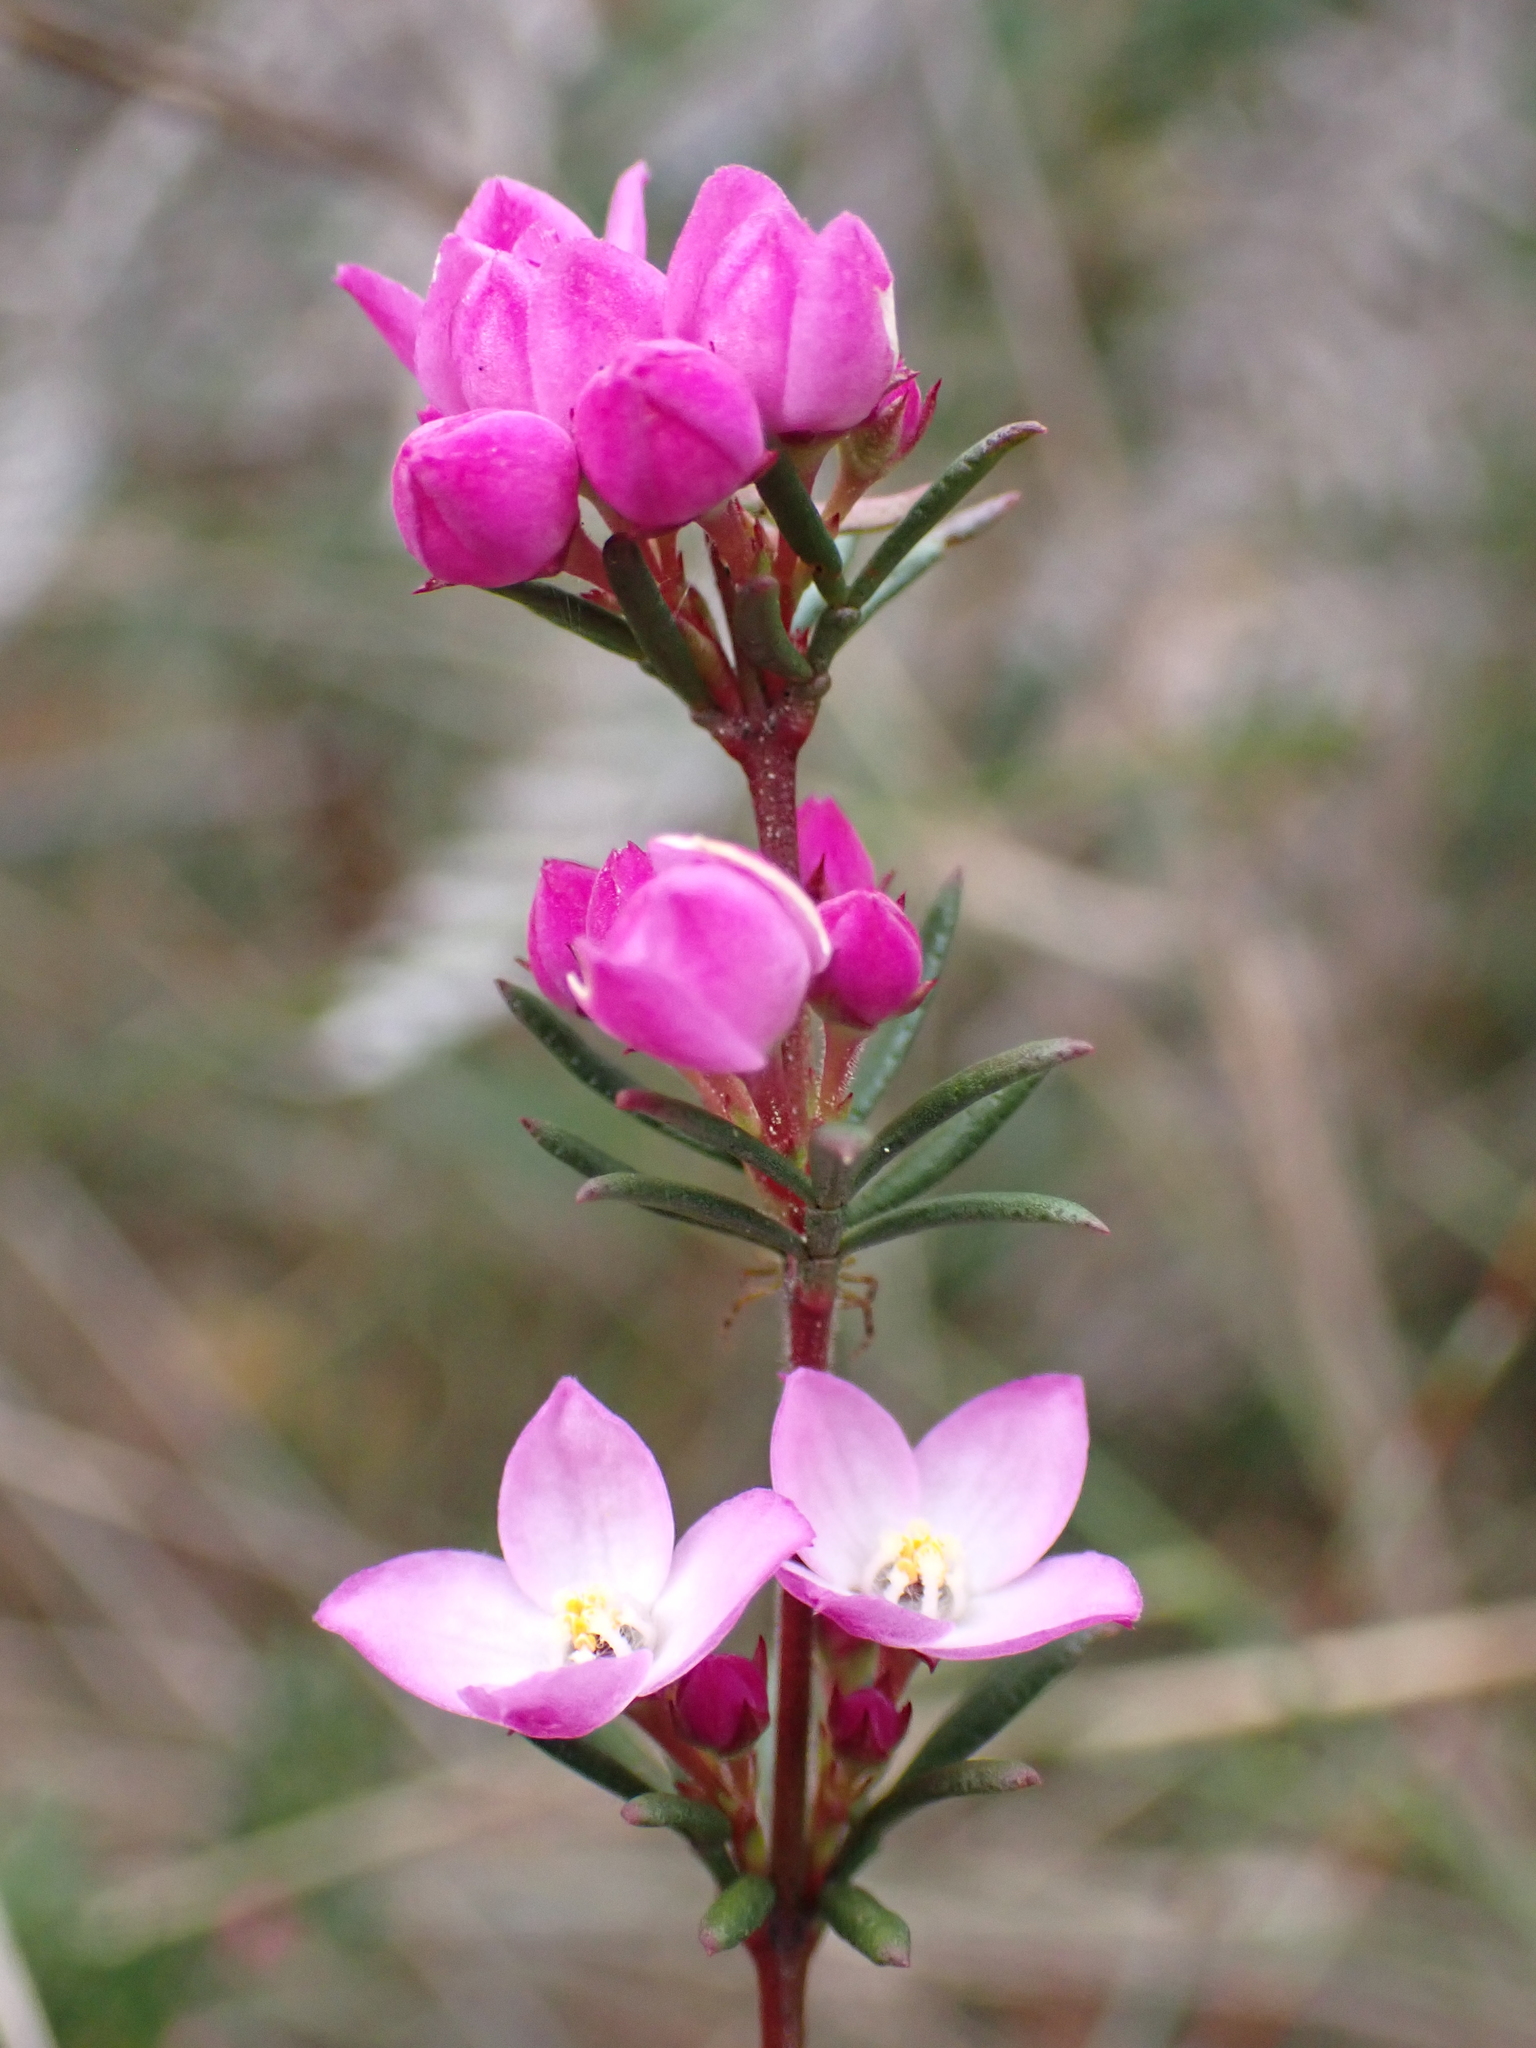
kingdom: Plantae
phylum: Tracheophyta
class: Magnoliopsida
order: Sapindales
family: Rutaceae
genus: Boronia
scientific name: Boronia pilosa
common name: Hairy boronia
